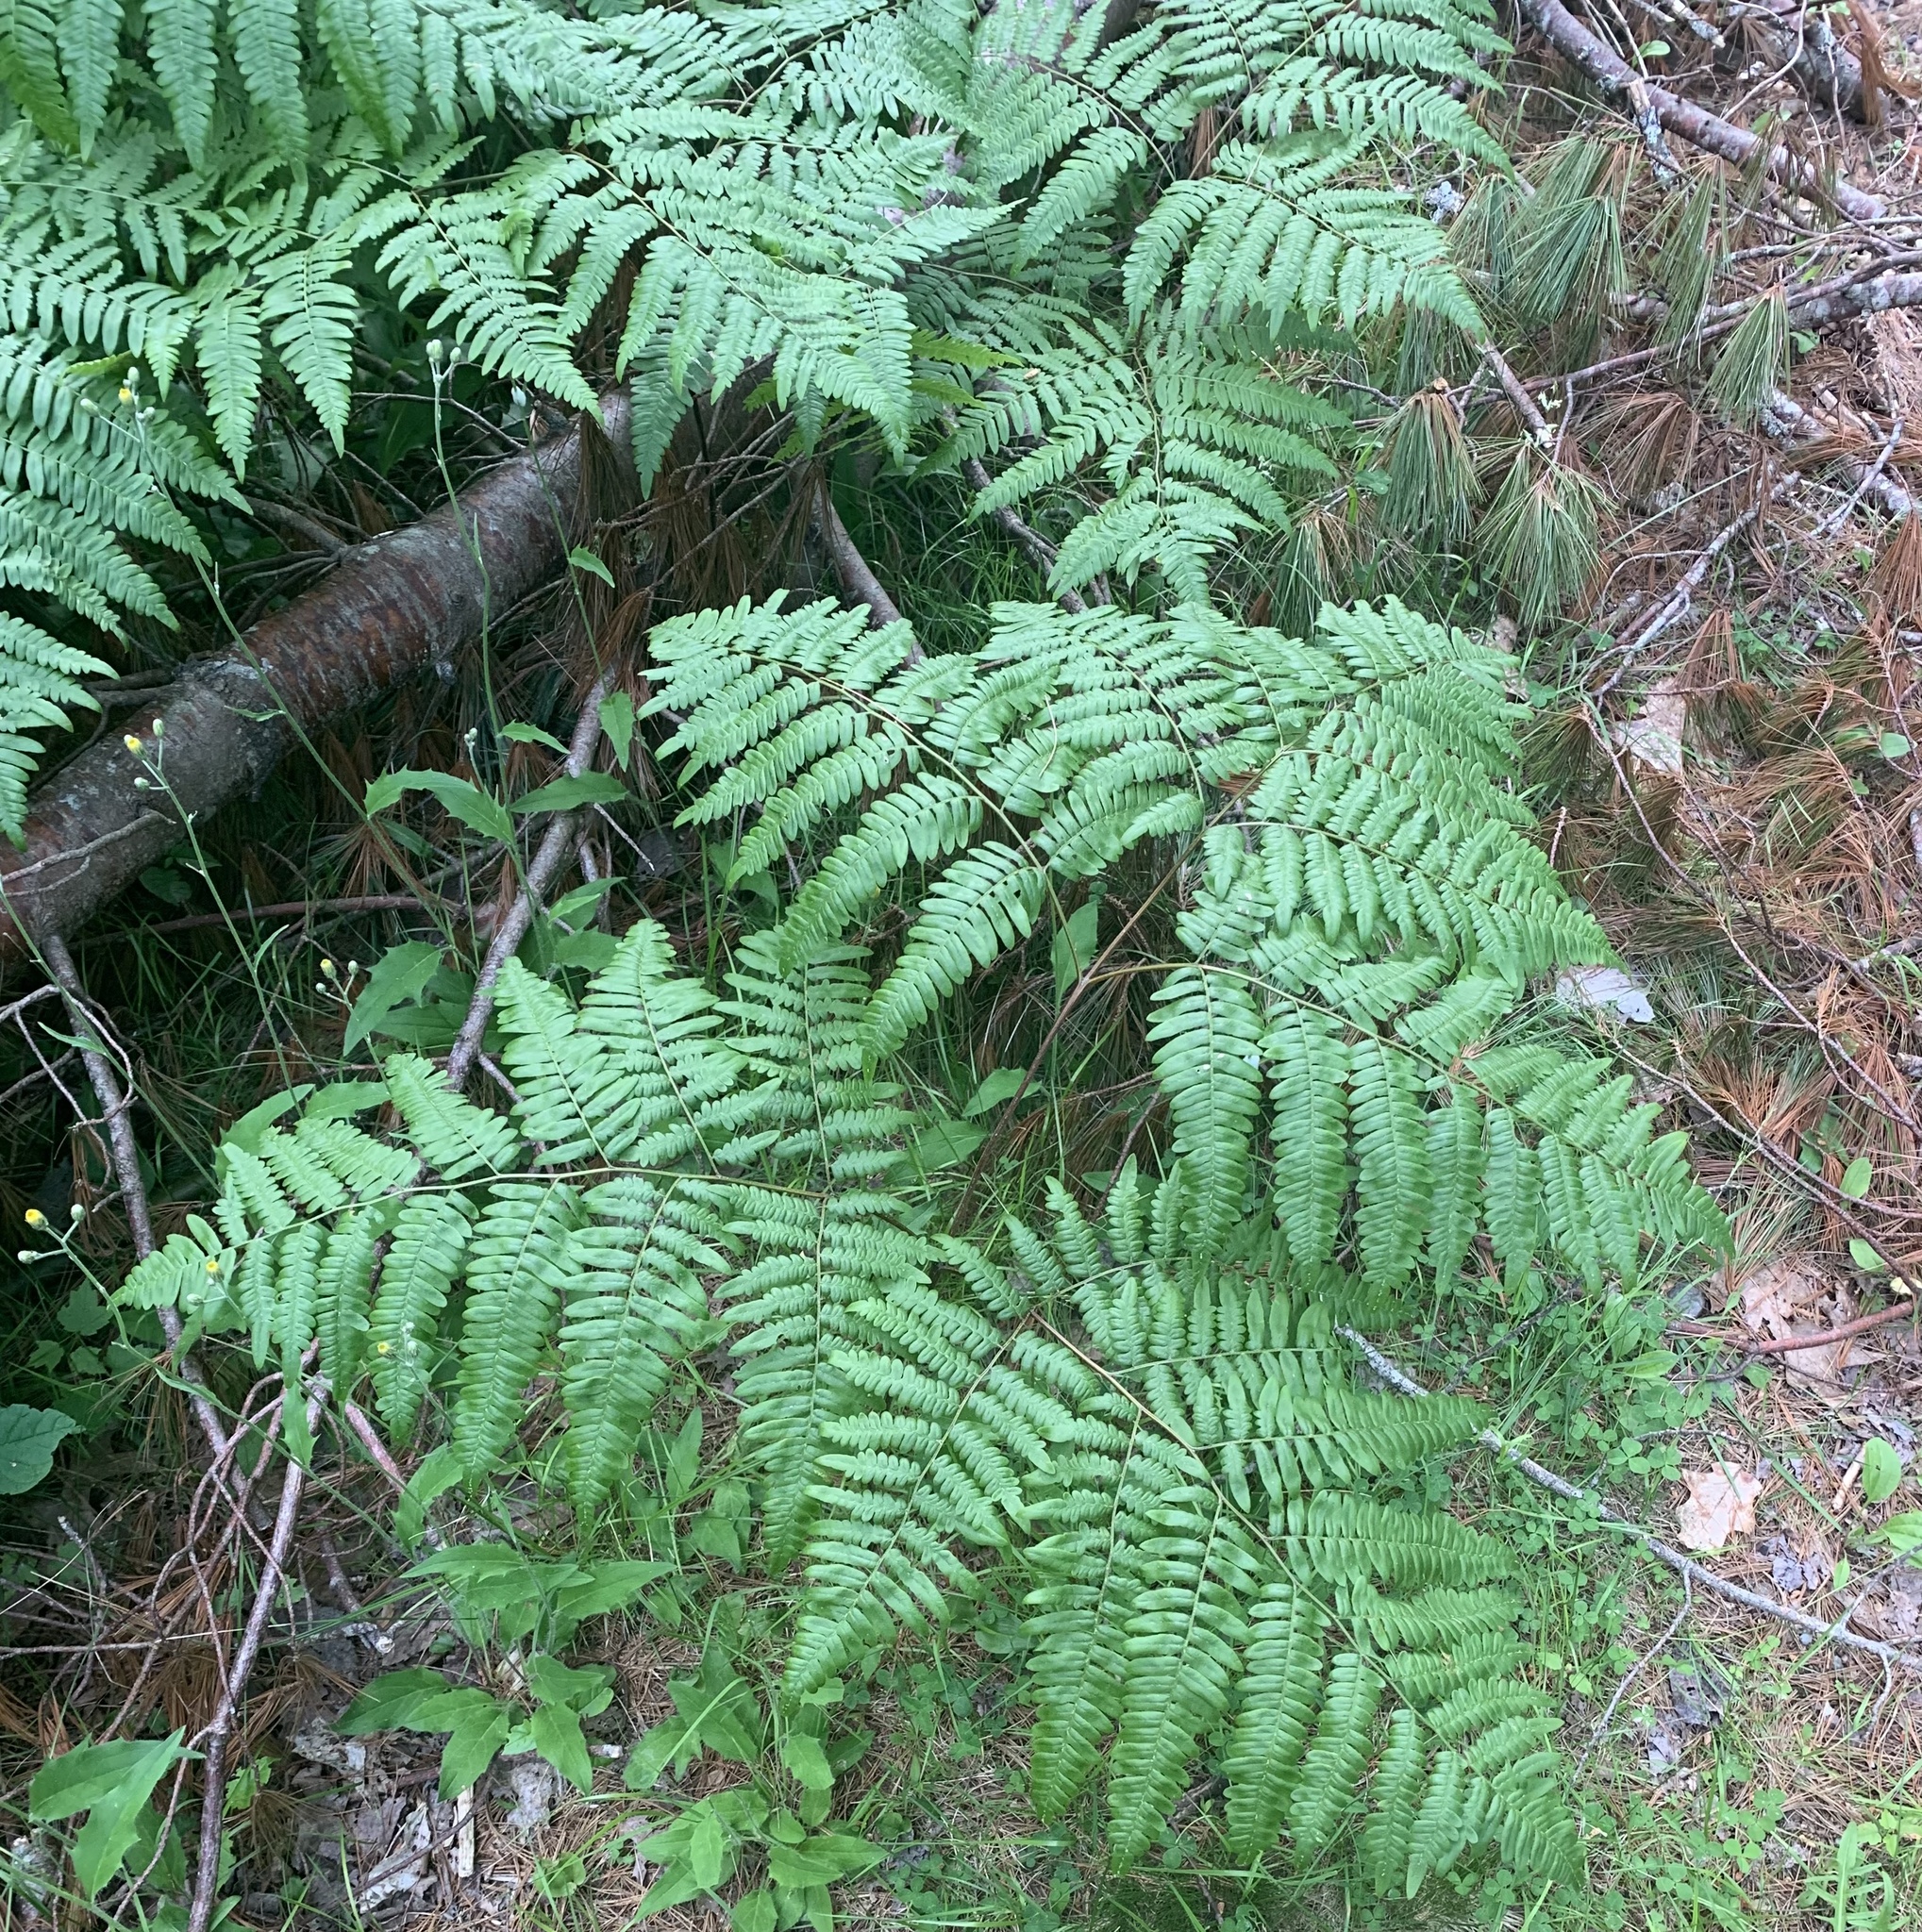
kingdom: Plantae
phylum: Tracheophyta
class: Polypodiopsida
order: Polypodiales
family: Dennstaedtiaceae
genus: Pteridium
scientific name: Pteridium aquilinum
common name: Bracken
